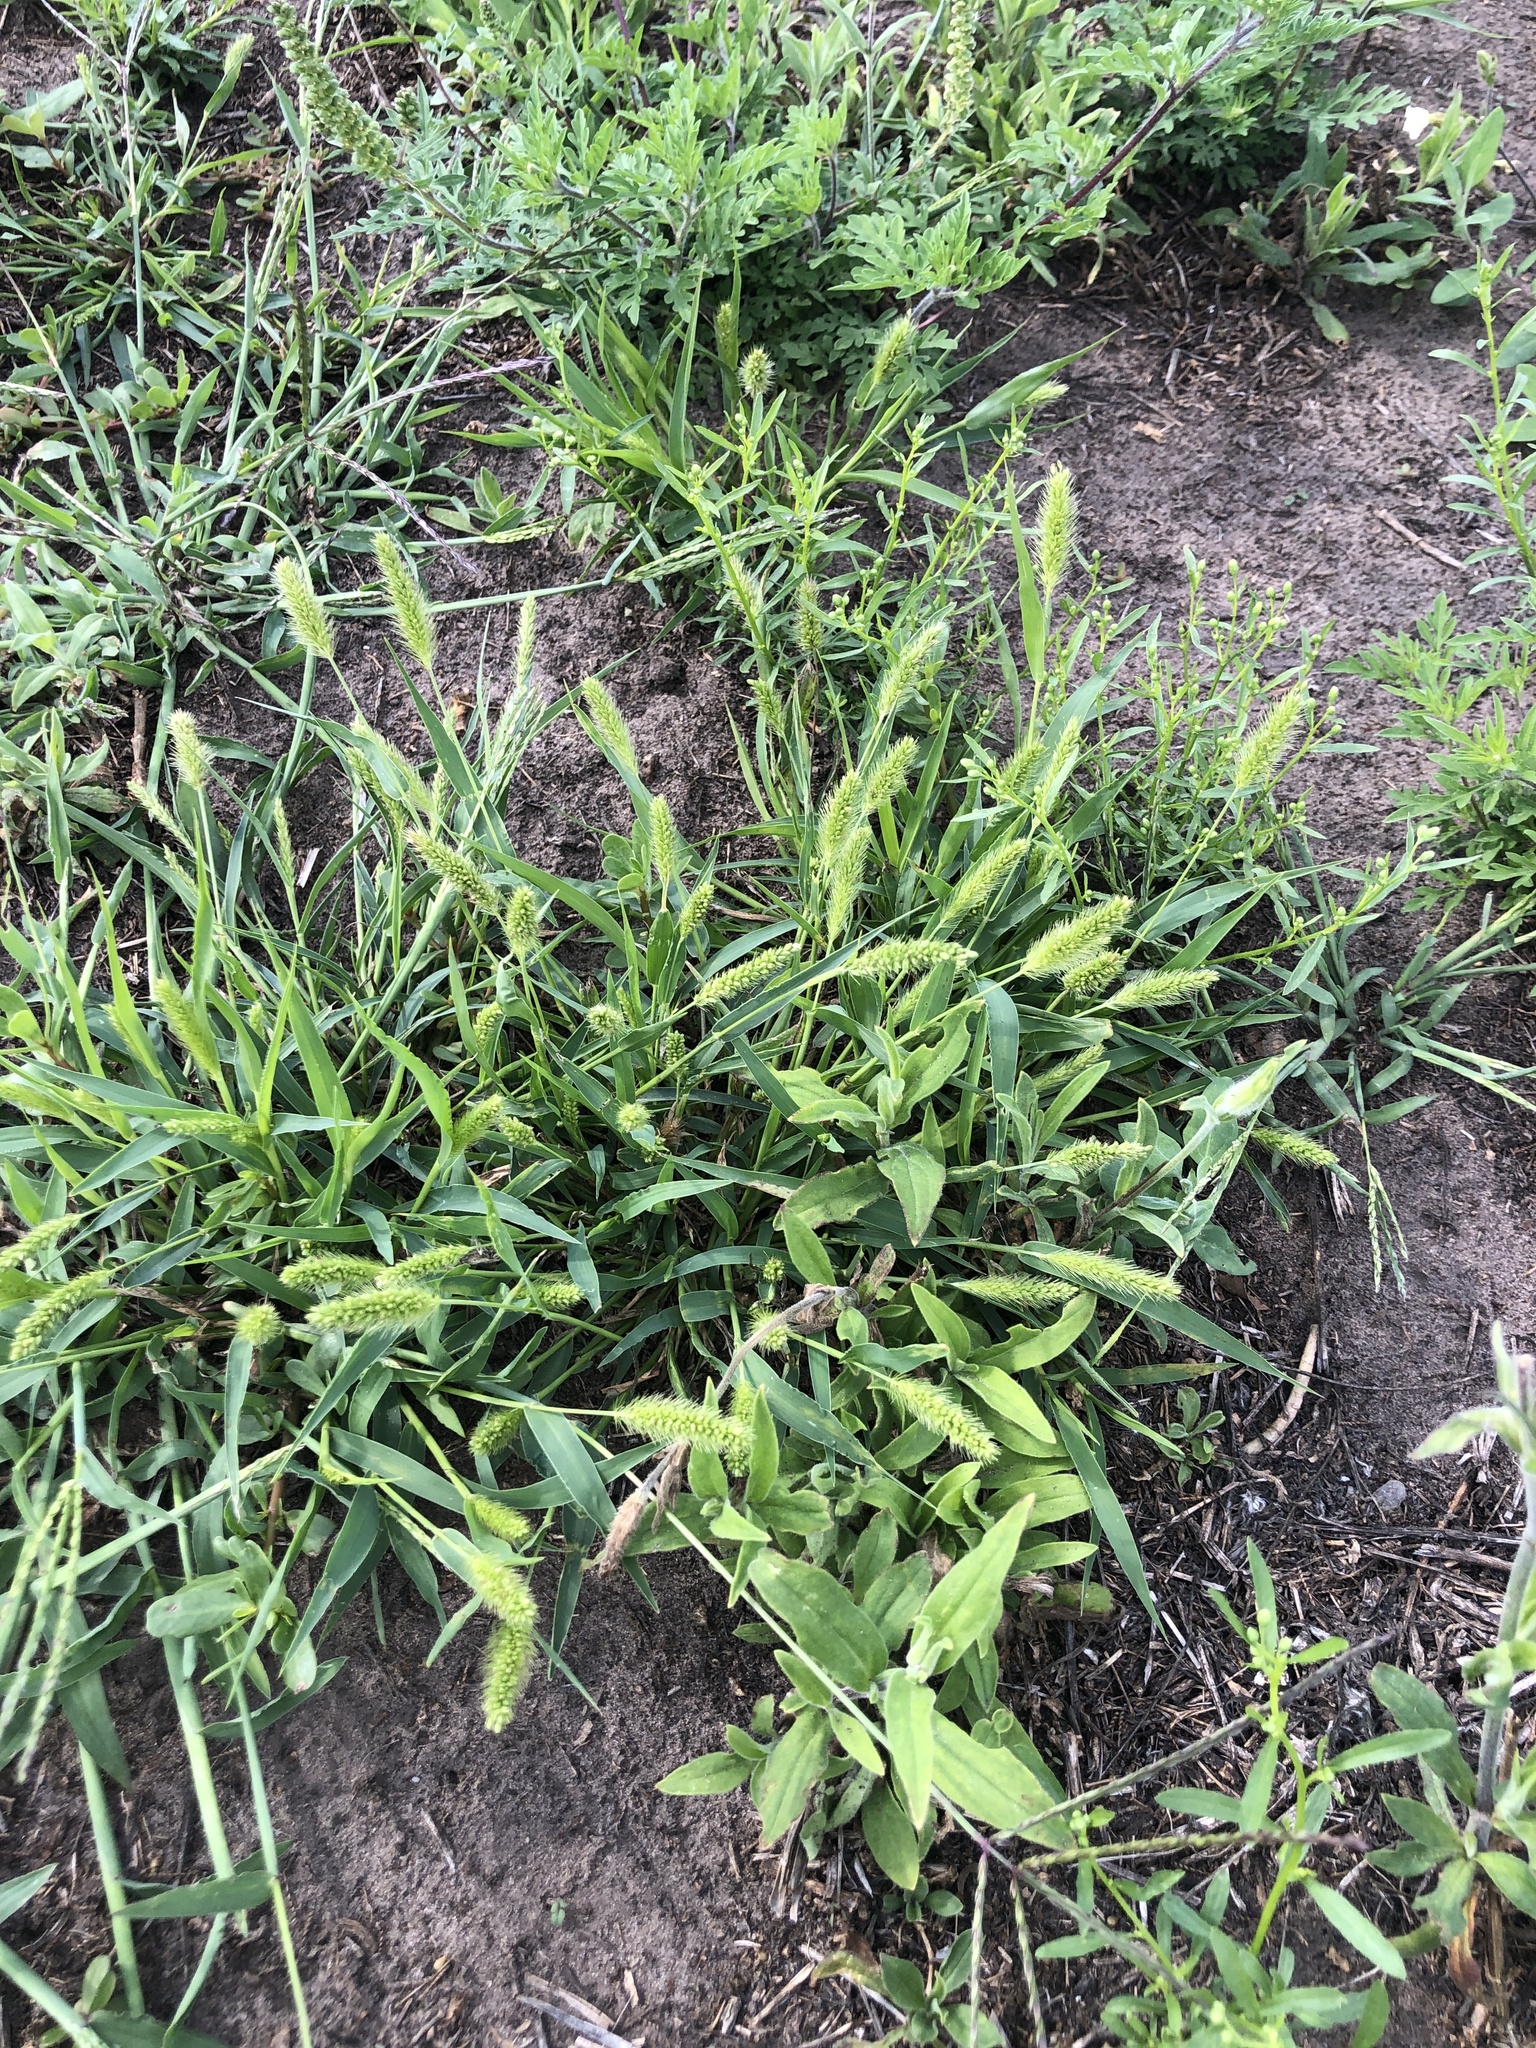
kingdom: Plantae
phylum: Tracheophyta
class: Liliopsida
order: Poales
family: Poaceae
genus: Setaria
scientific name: Setaria viridis
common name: Green bristlegrass
